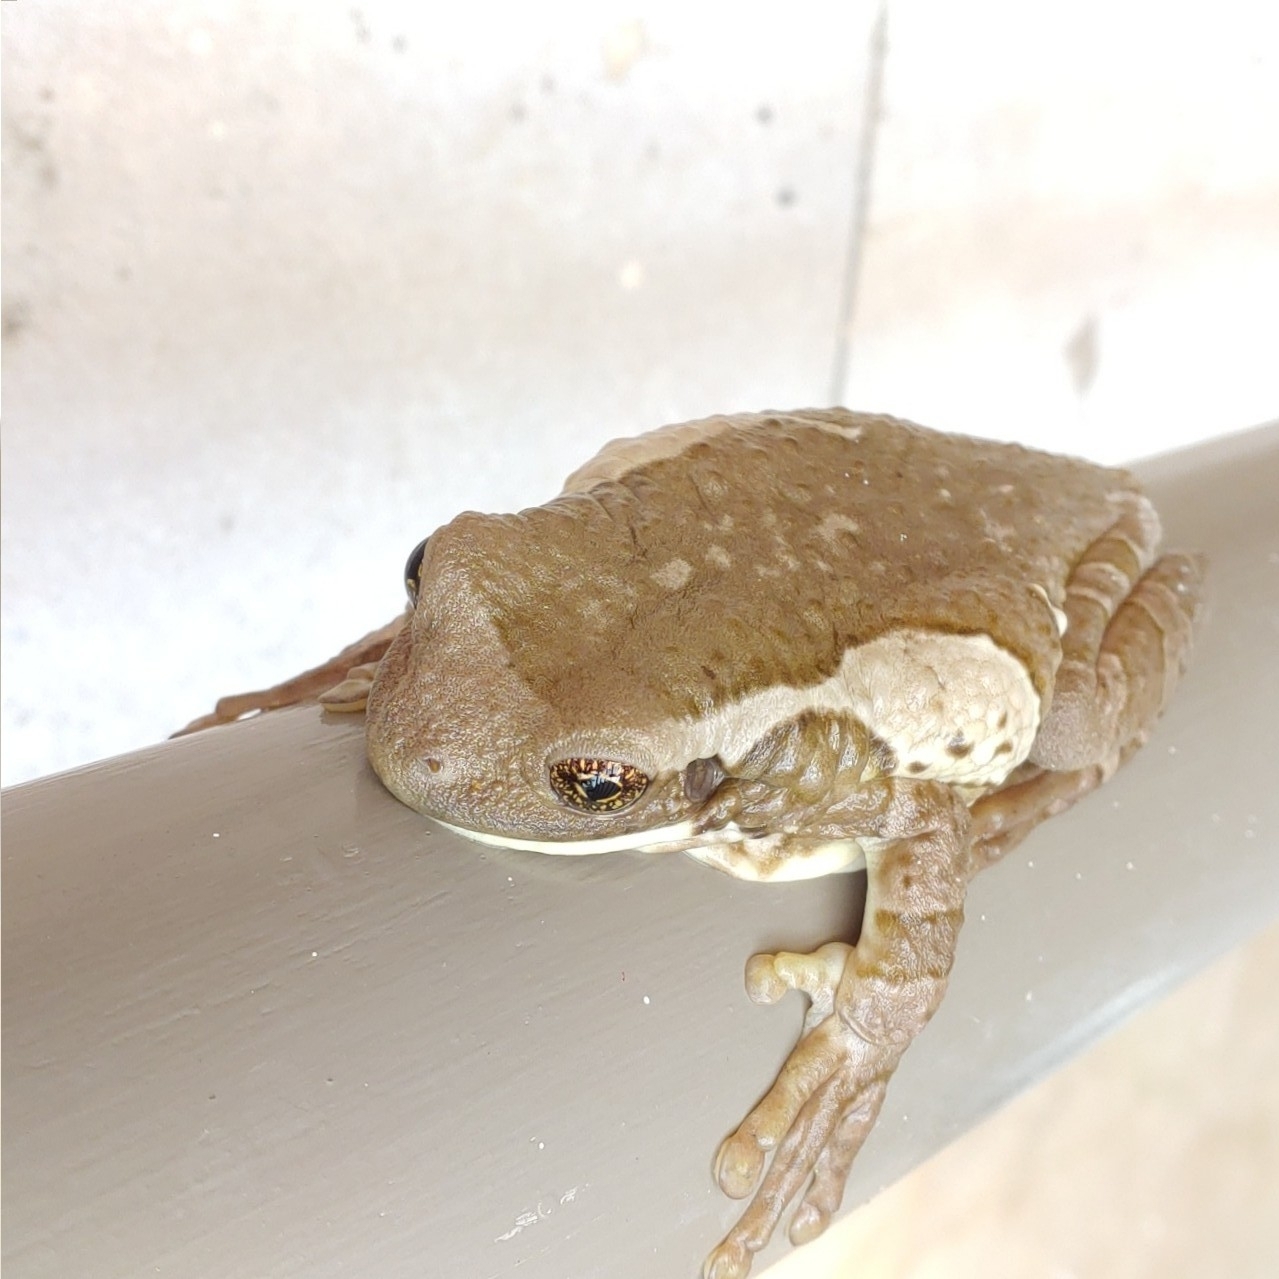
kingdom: Animalia
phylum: Chordata
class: Amphibia
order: Anura
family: Hylidae
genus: Trachycephalus
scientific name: Trachycephalus vermiculatus
